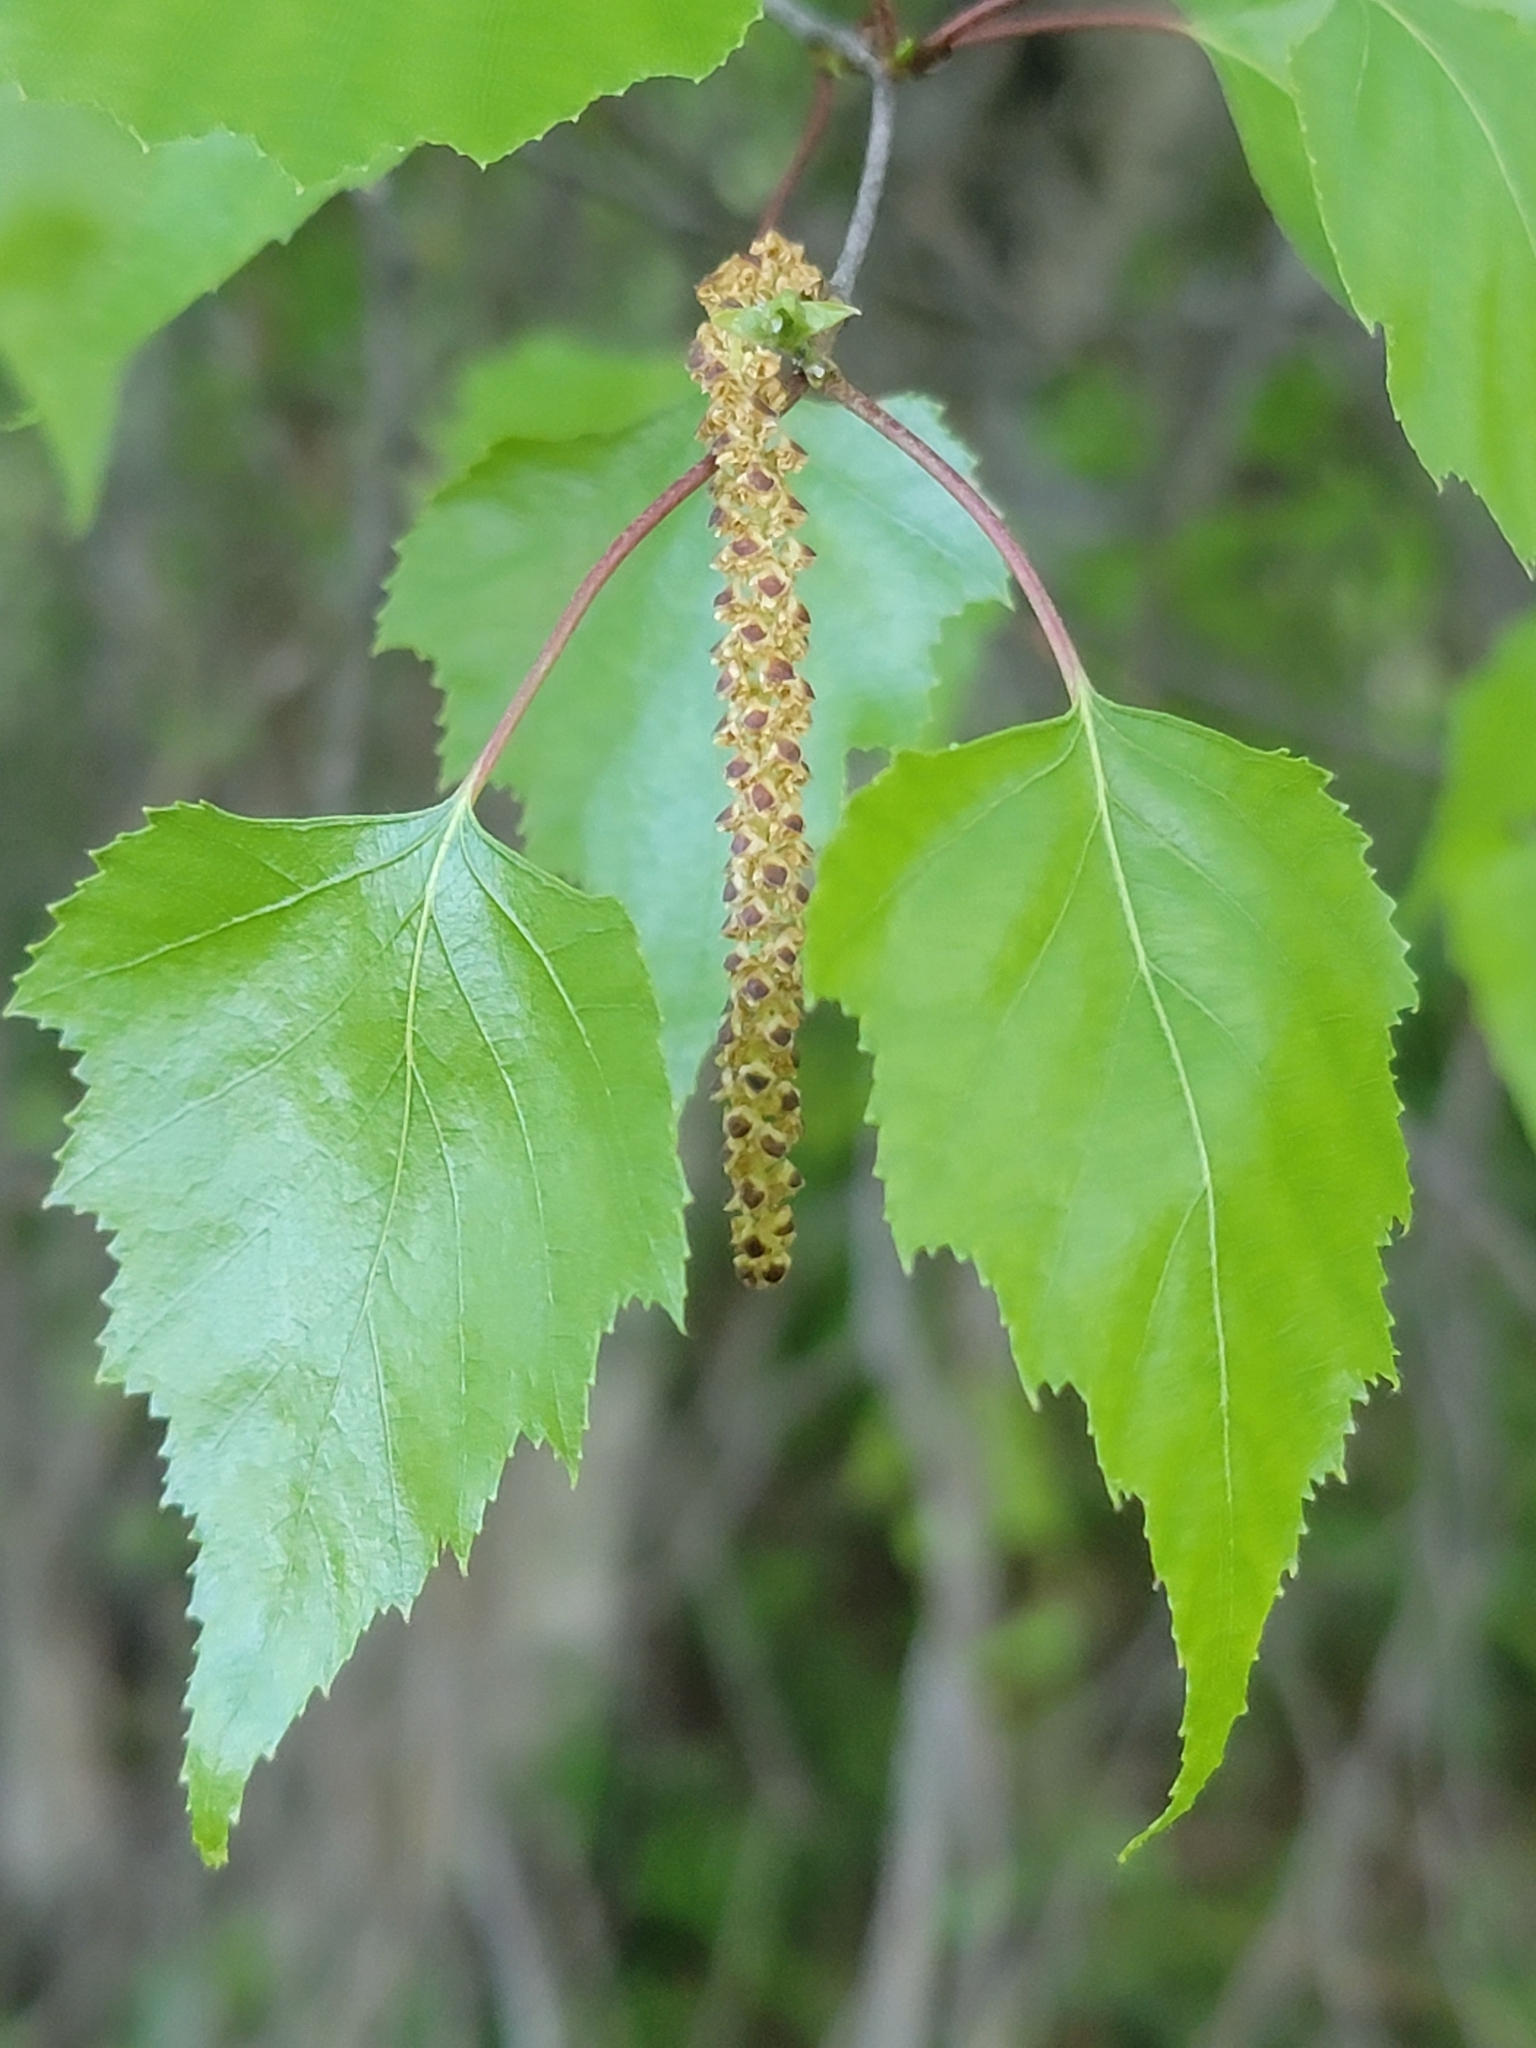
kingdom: Plantae
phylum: Tracheophyta
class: Magnoliopsida
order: Fagales
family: Betulaceae
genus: Betula
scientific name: Betula populifolia
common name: Fire birch
